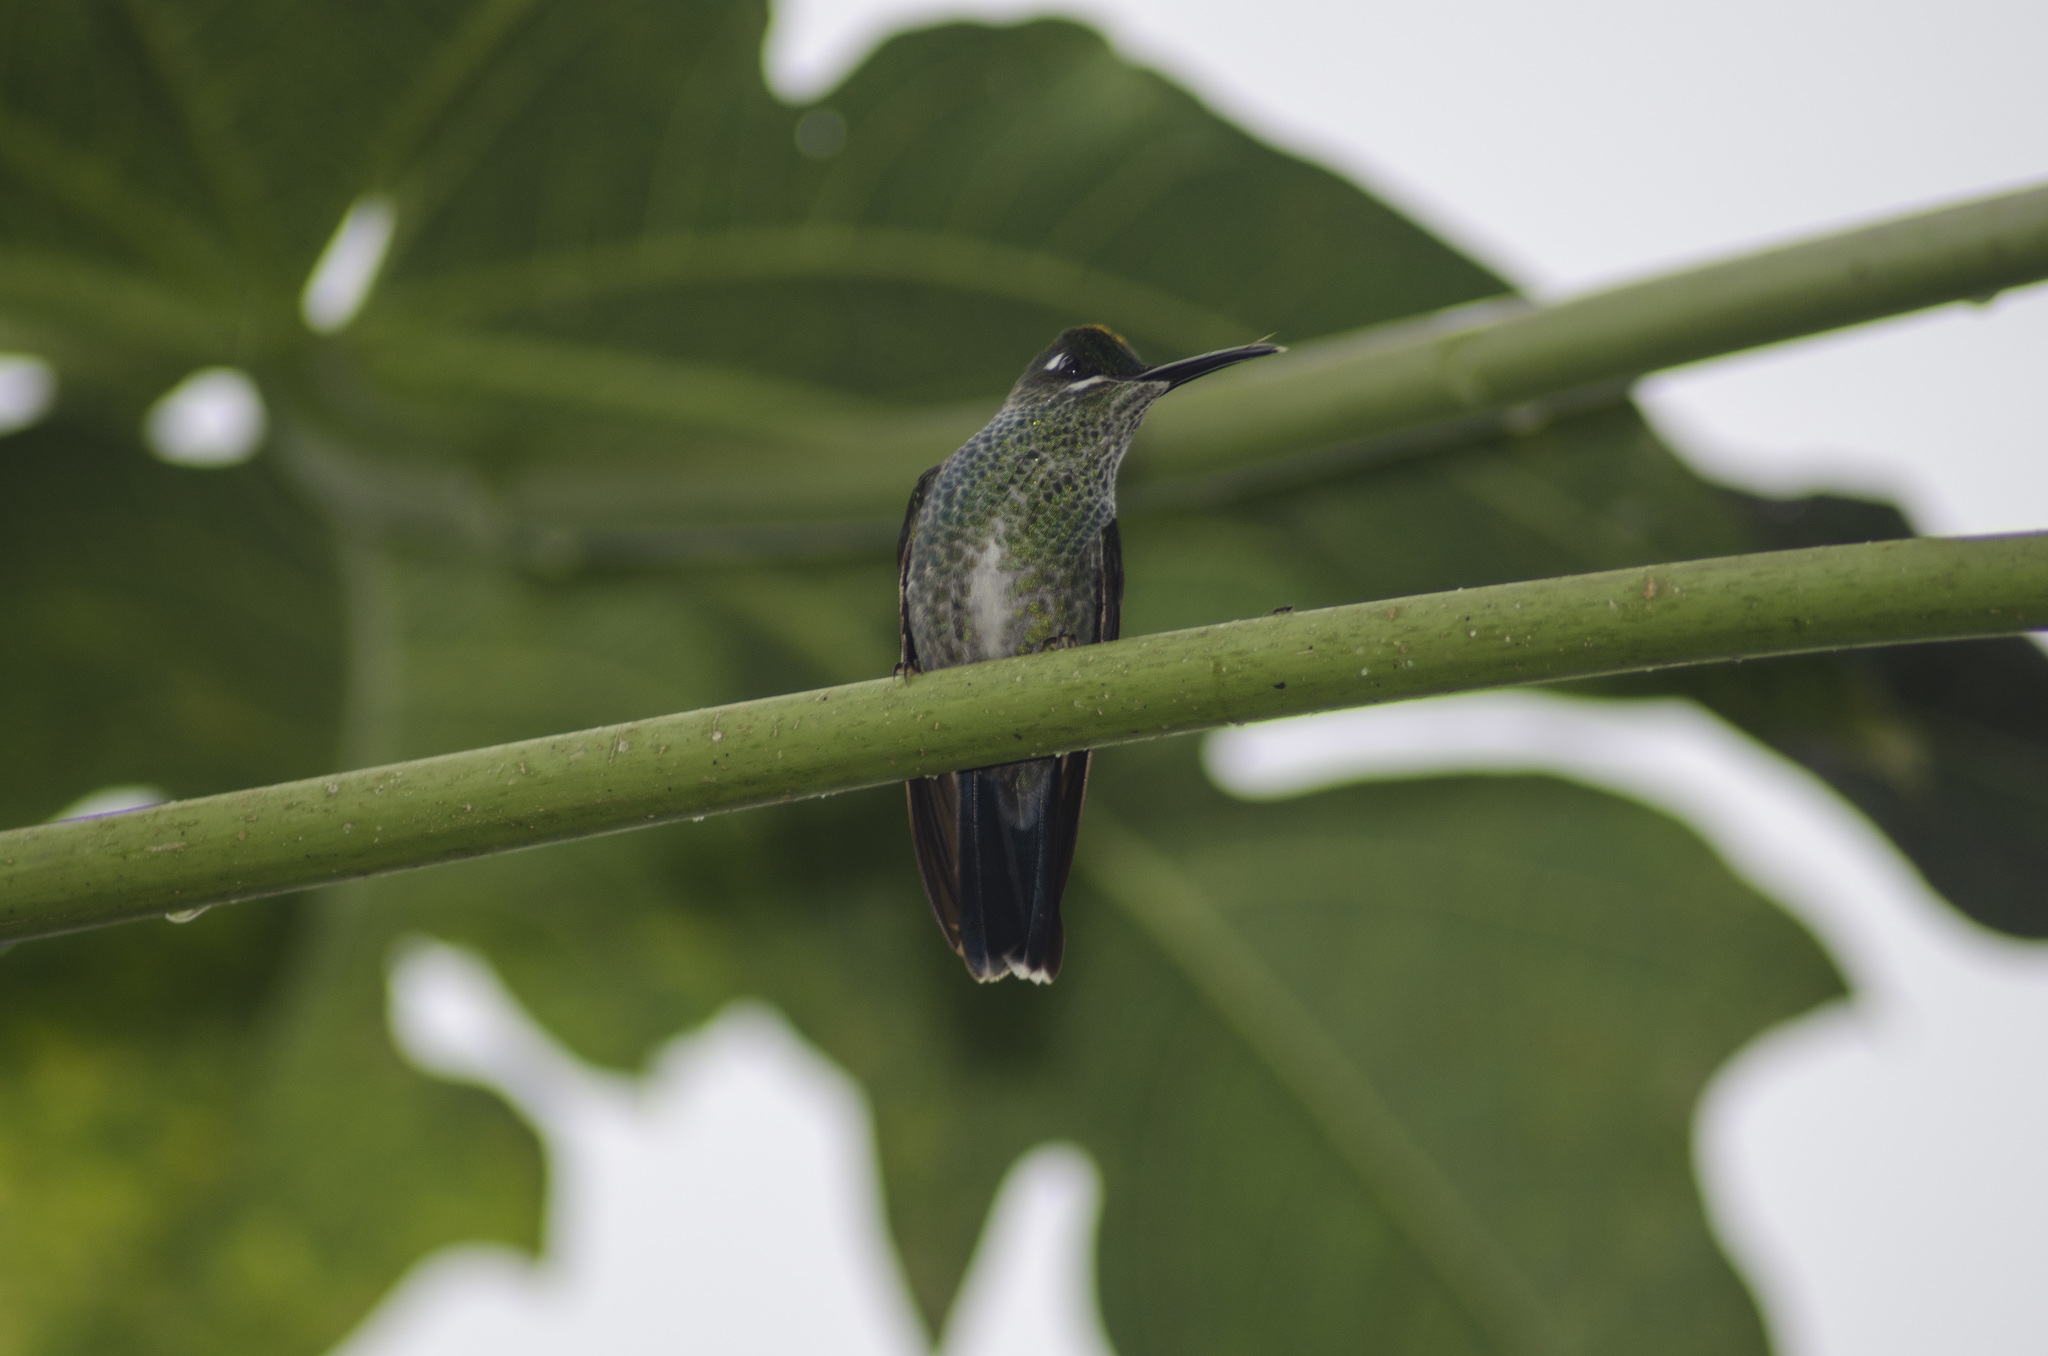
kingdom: Animalia
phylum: Chordata
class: Aves
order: Apodiformes
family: Trochilidae
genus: Heliodoxa
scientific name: Heliodoxa jacula
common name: Green-crowned brilliant
